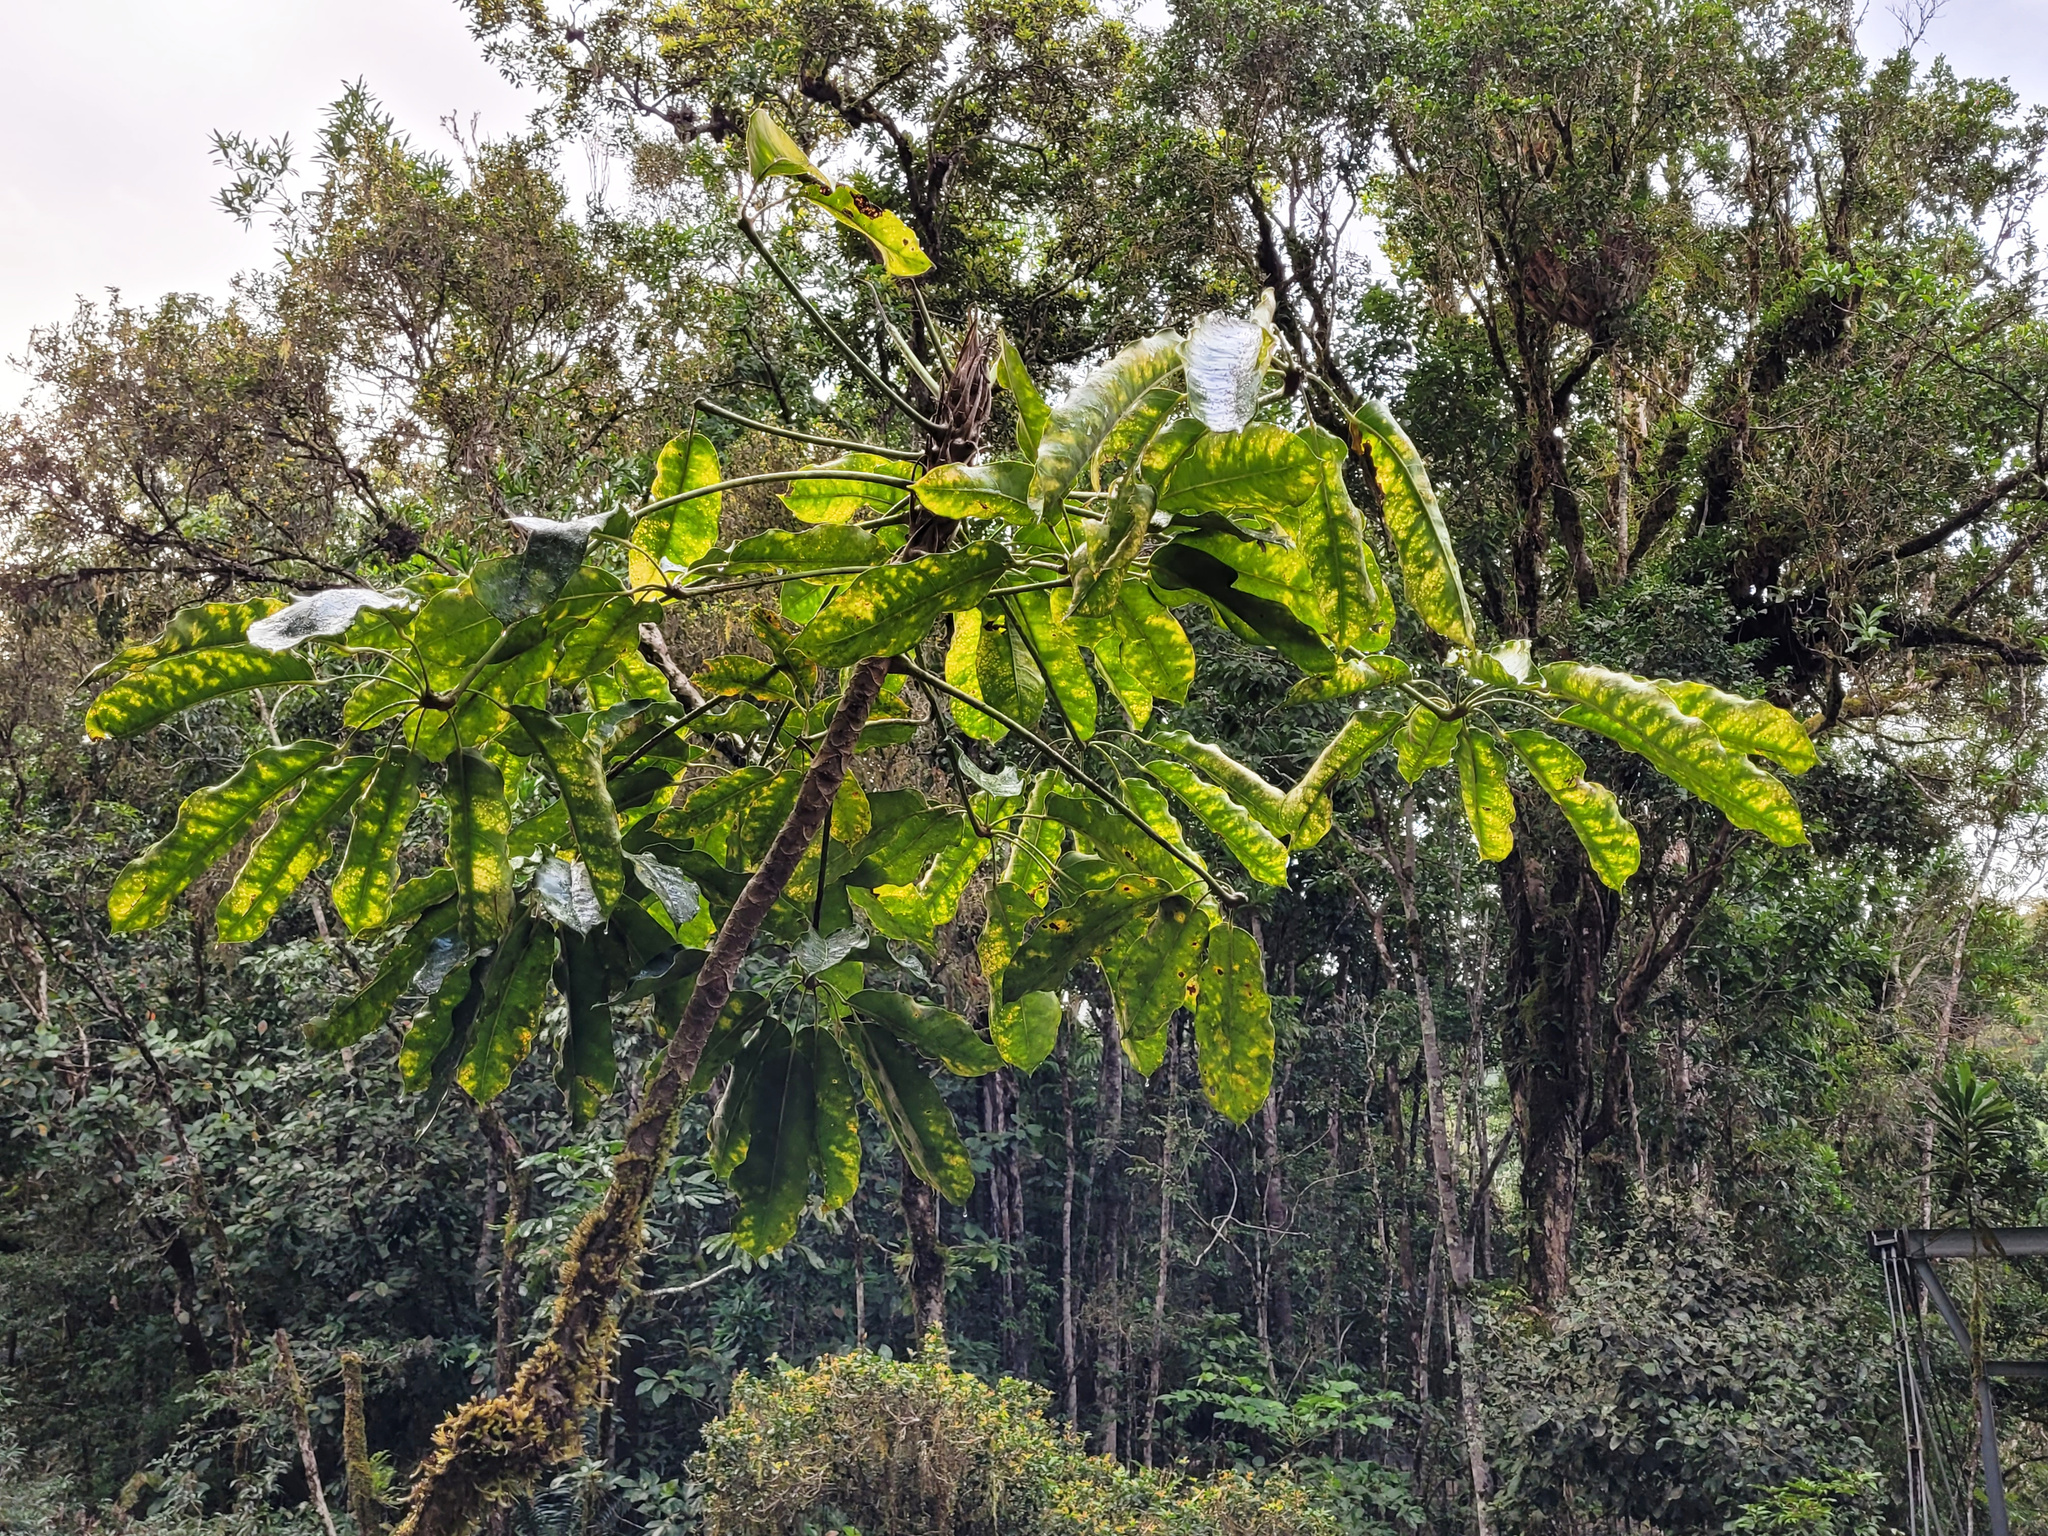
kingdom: Plantae
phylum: Tracheophyta
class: Magnoliopsida
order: Apiales
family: Araliaceae
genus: Heptapleurum
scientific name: Heptapleurum actinophyllum
